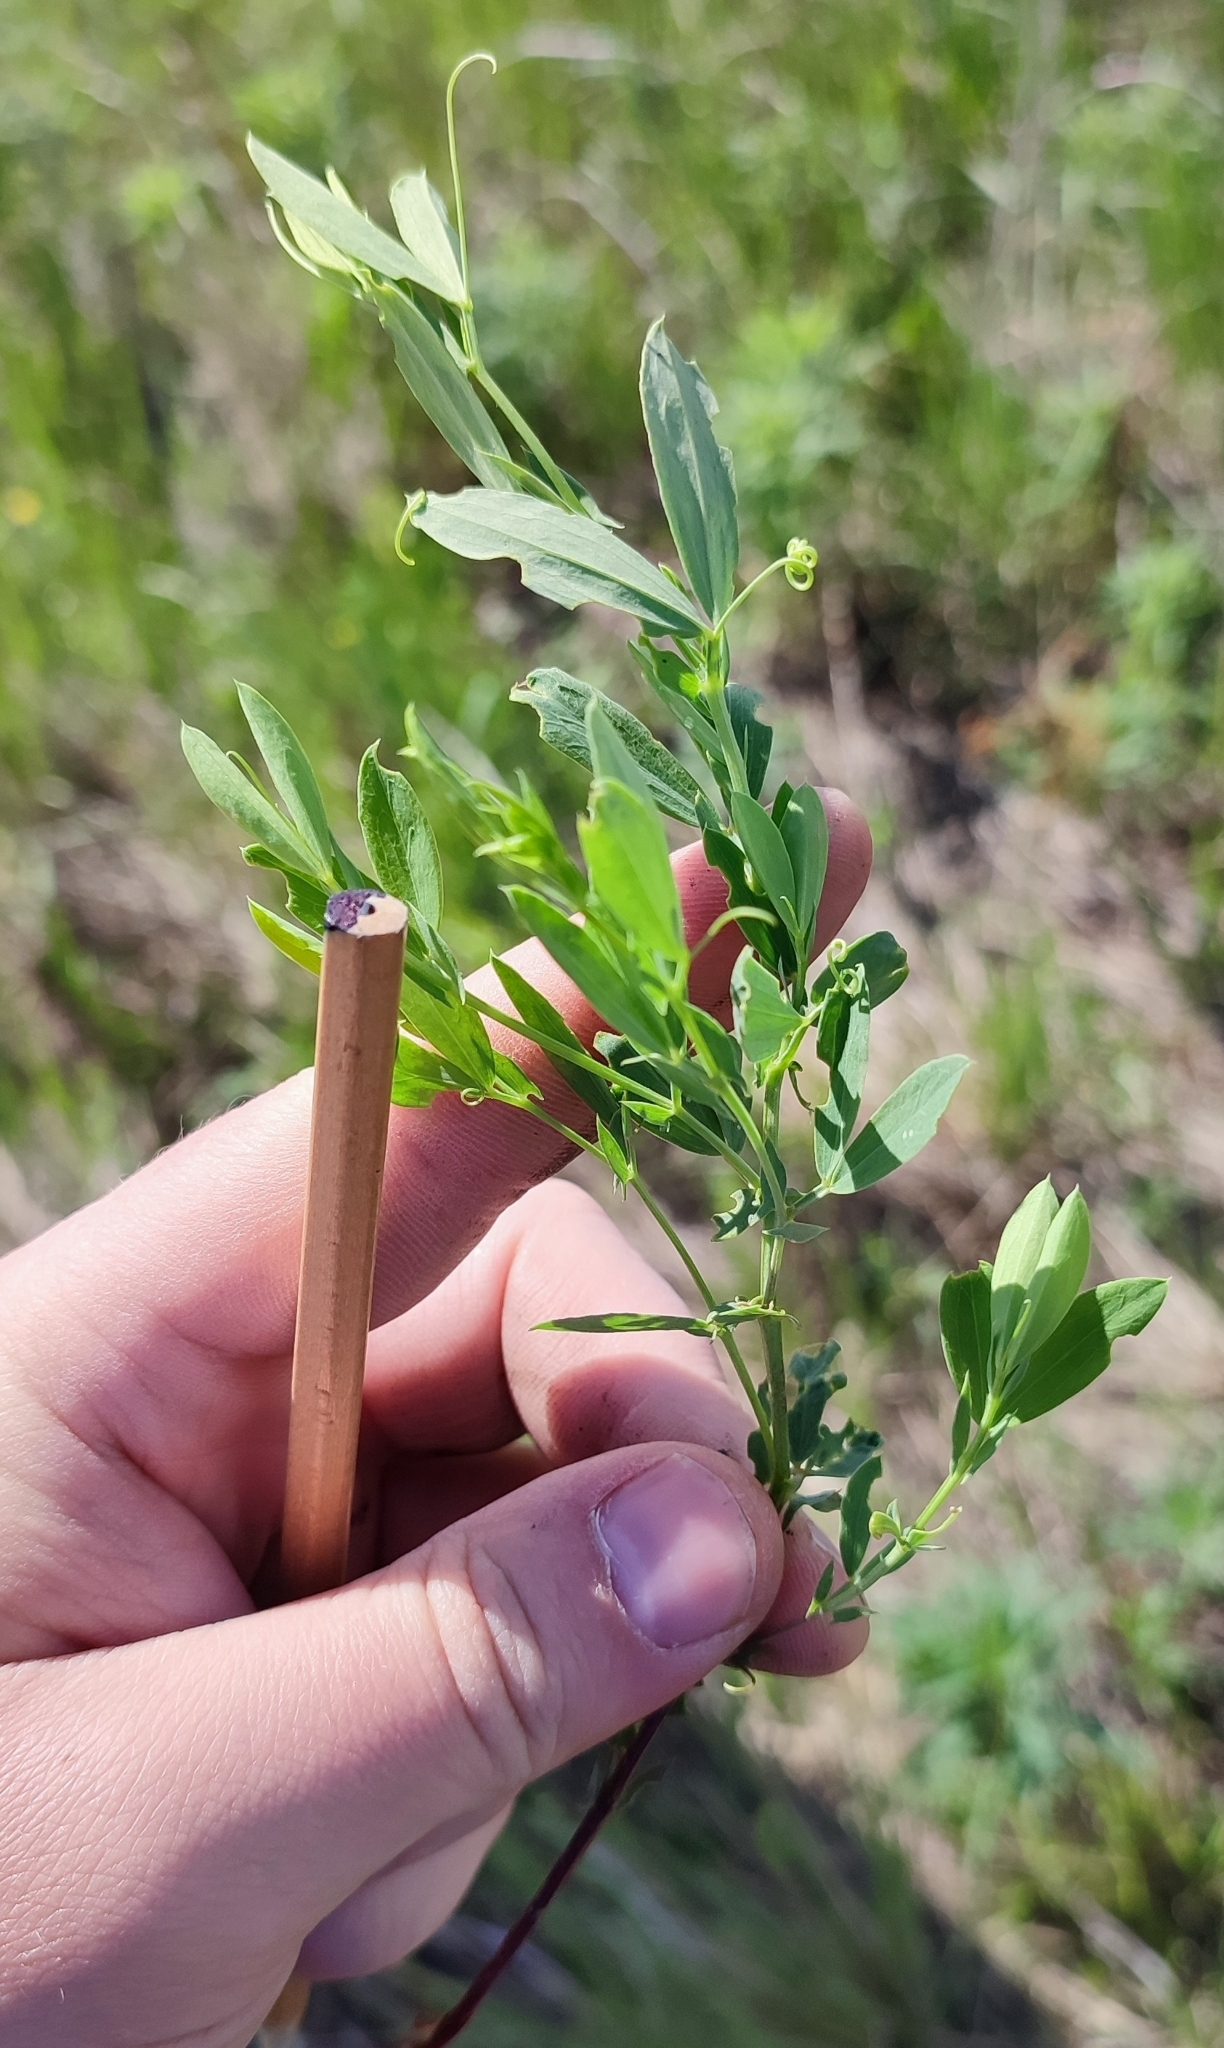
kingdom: Plantae
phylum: Tracheophyta
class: Magnoliopsida
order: Fabales
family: Fabaceae
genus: Lathyrus
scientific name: Lathyrus tuberosus
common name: Tuberous pea
